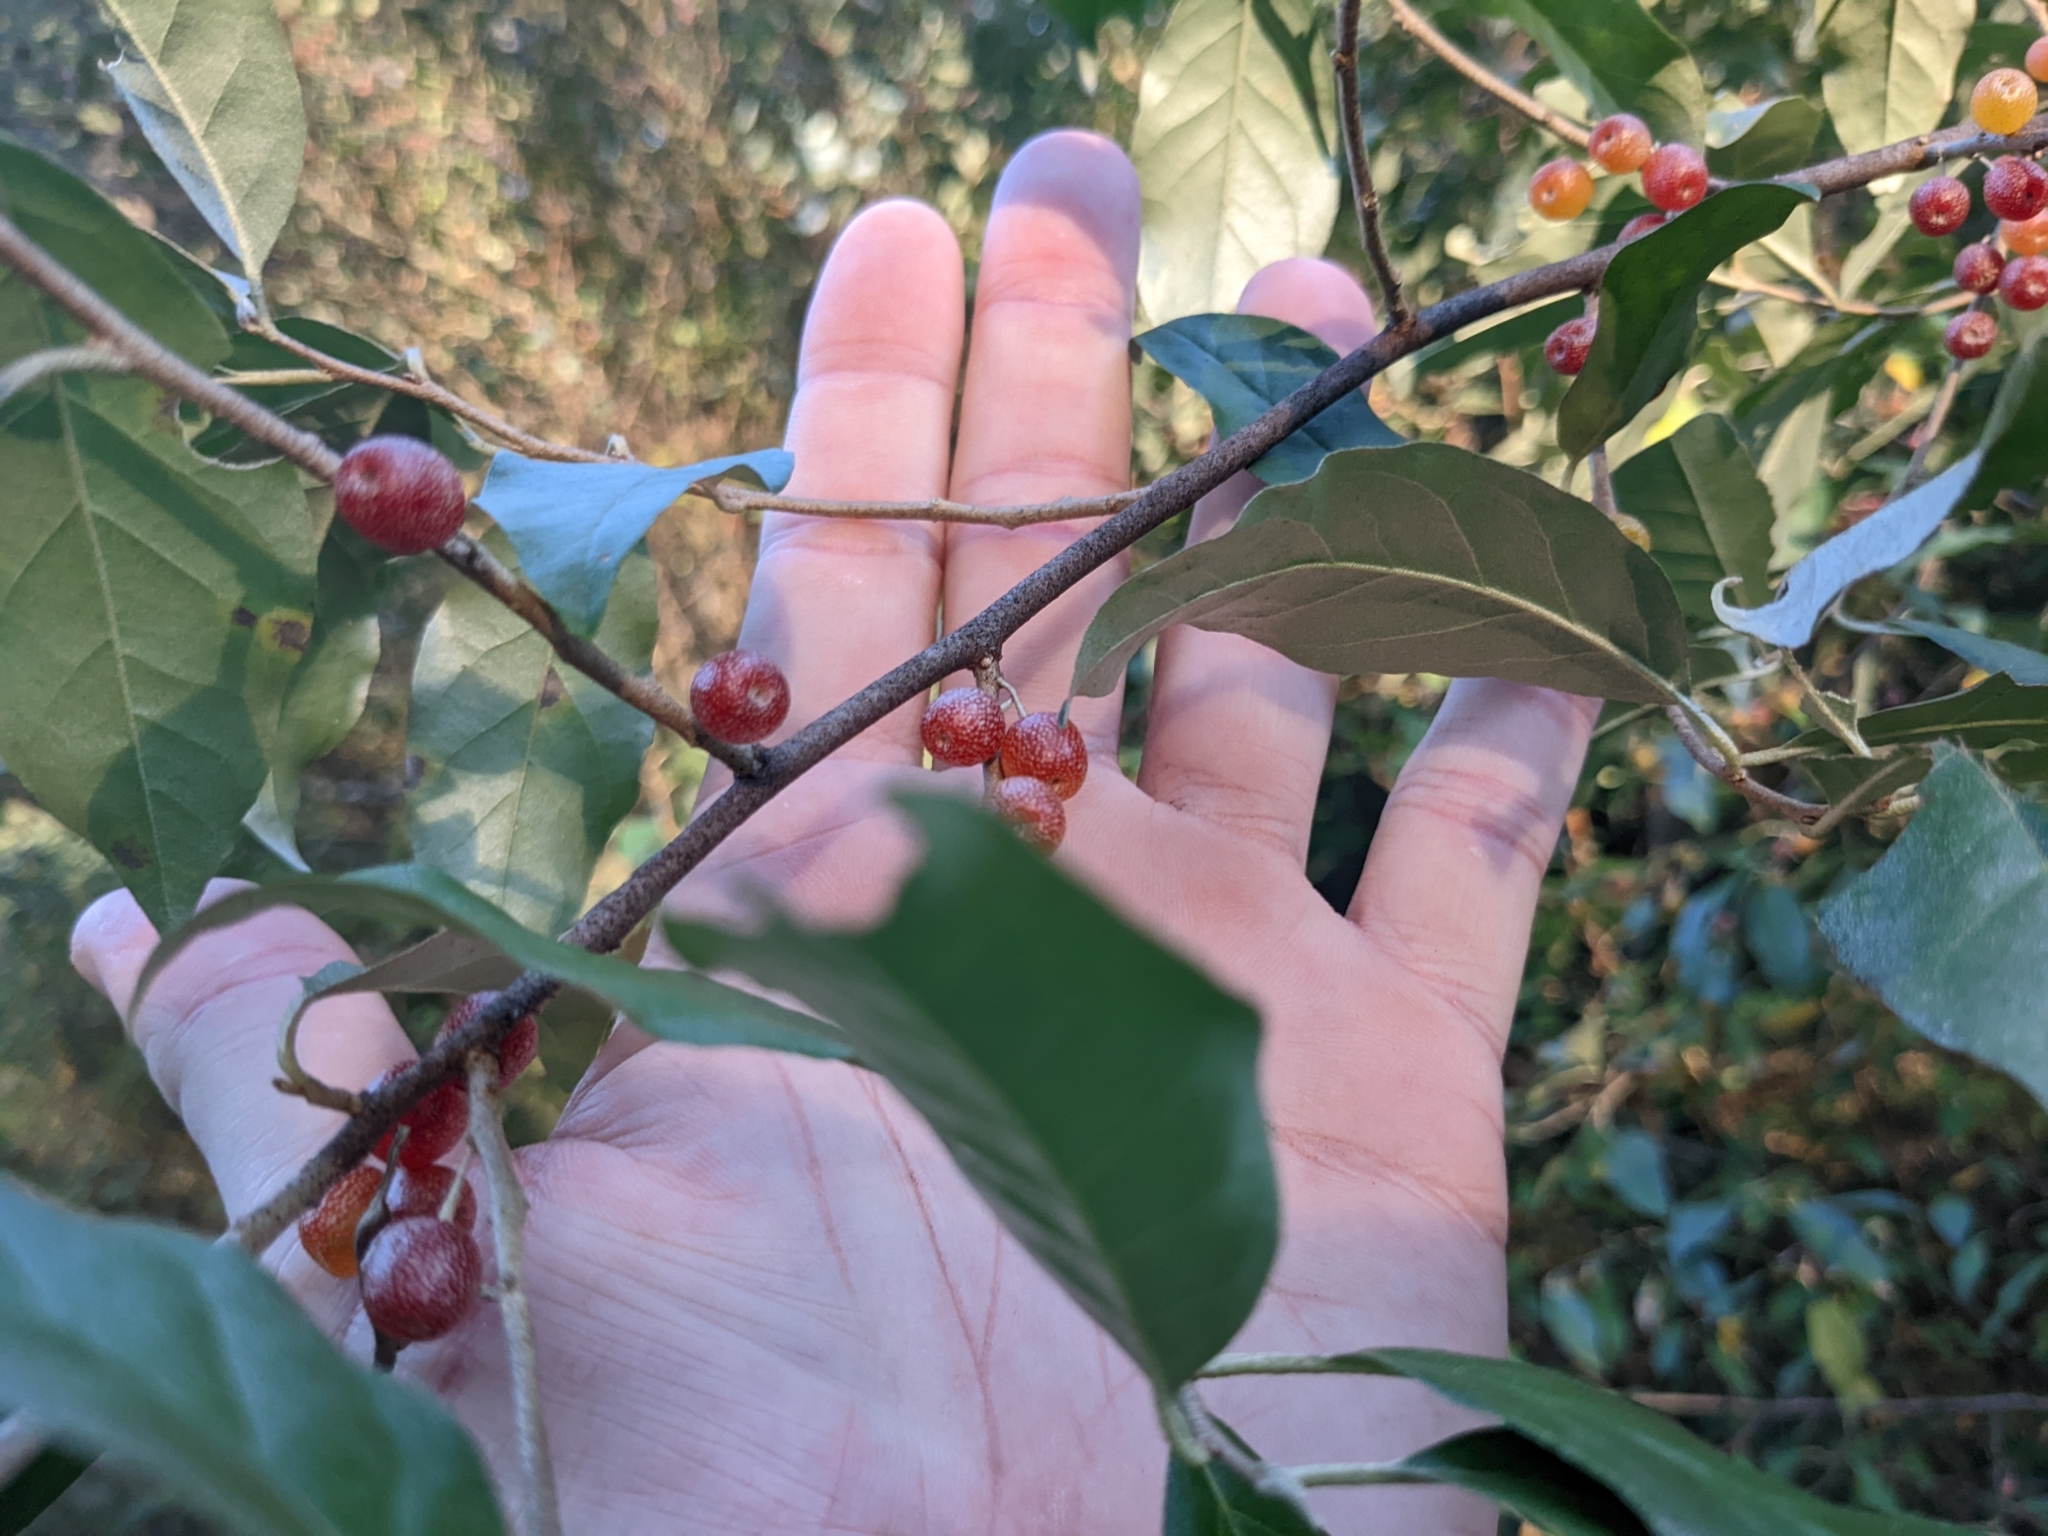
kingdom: Plantae
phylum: Tracheophyta
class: Magnoliopsida
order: Rosales
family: Elaeagnaceae
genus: Elaeagnus
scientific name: Elaeagnus umbellata
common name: Autumn olive
